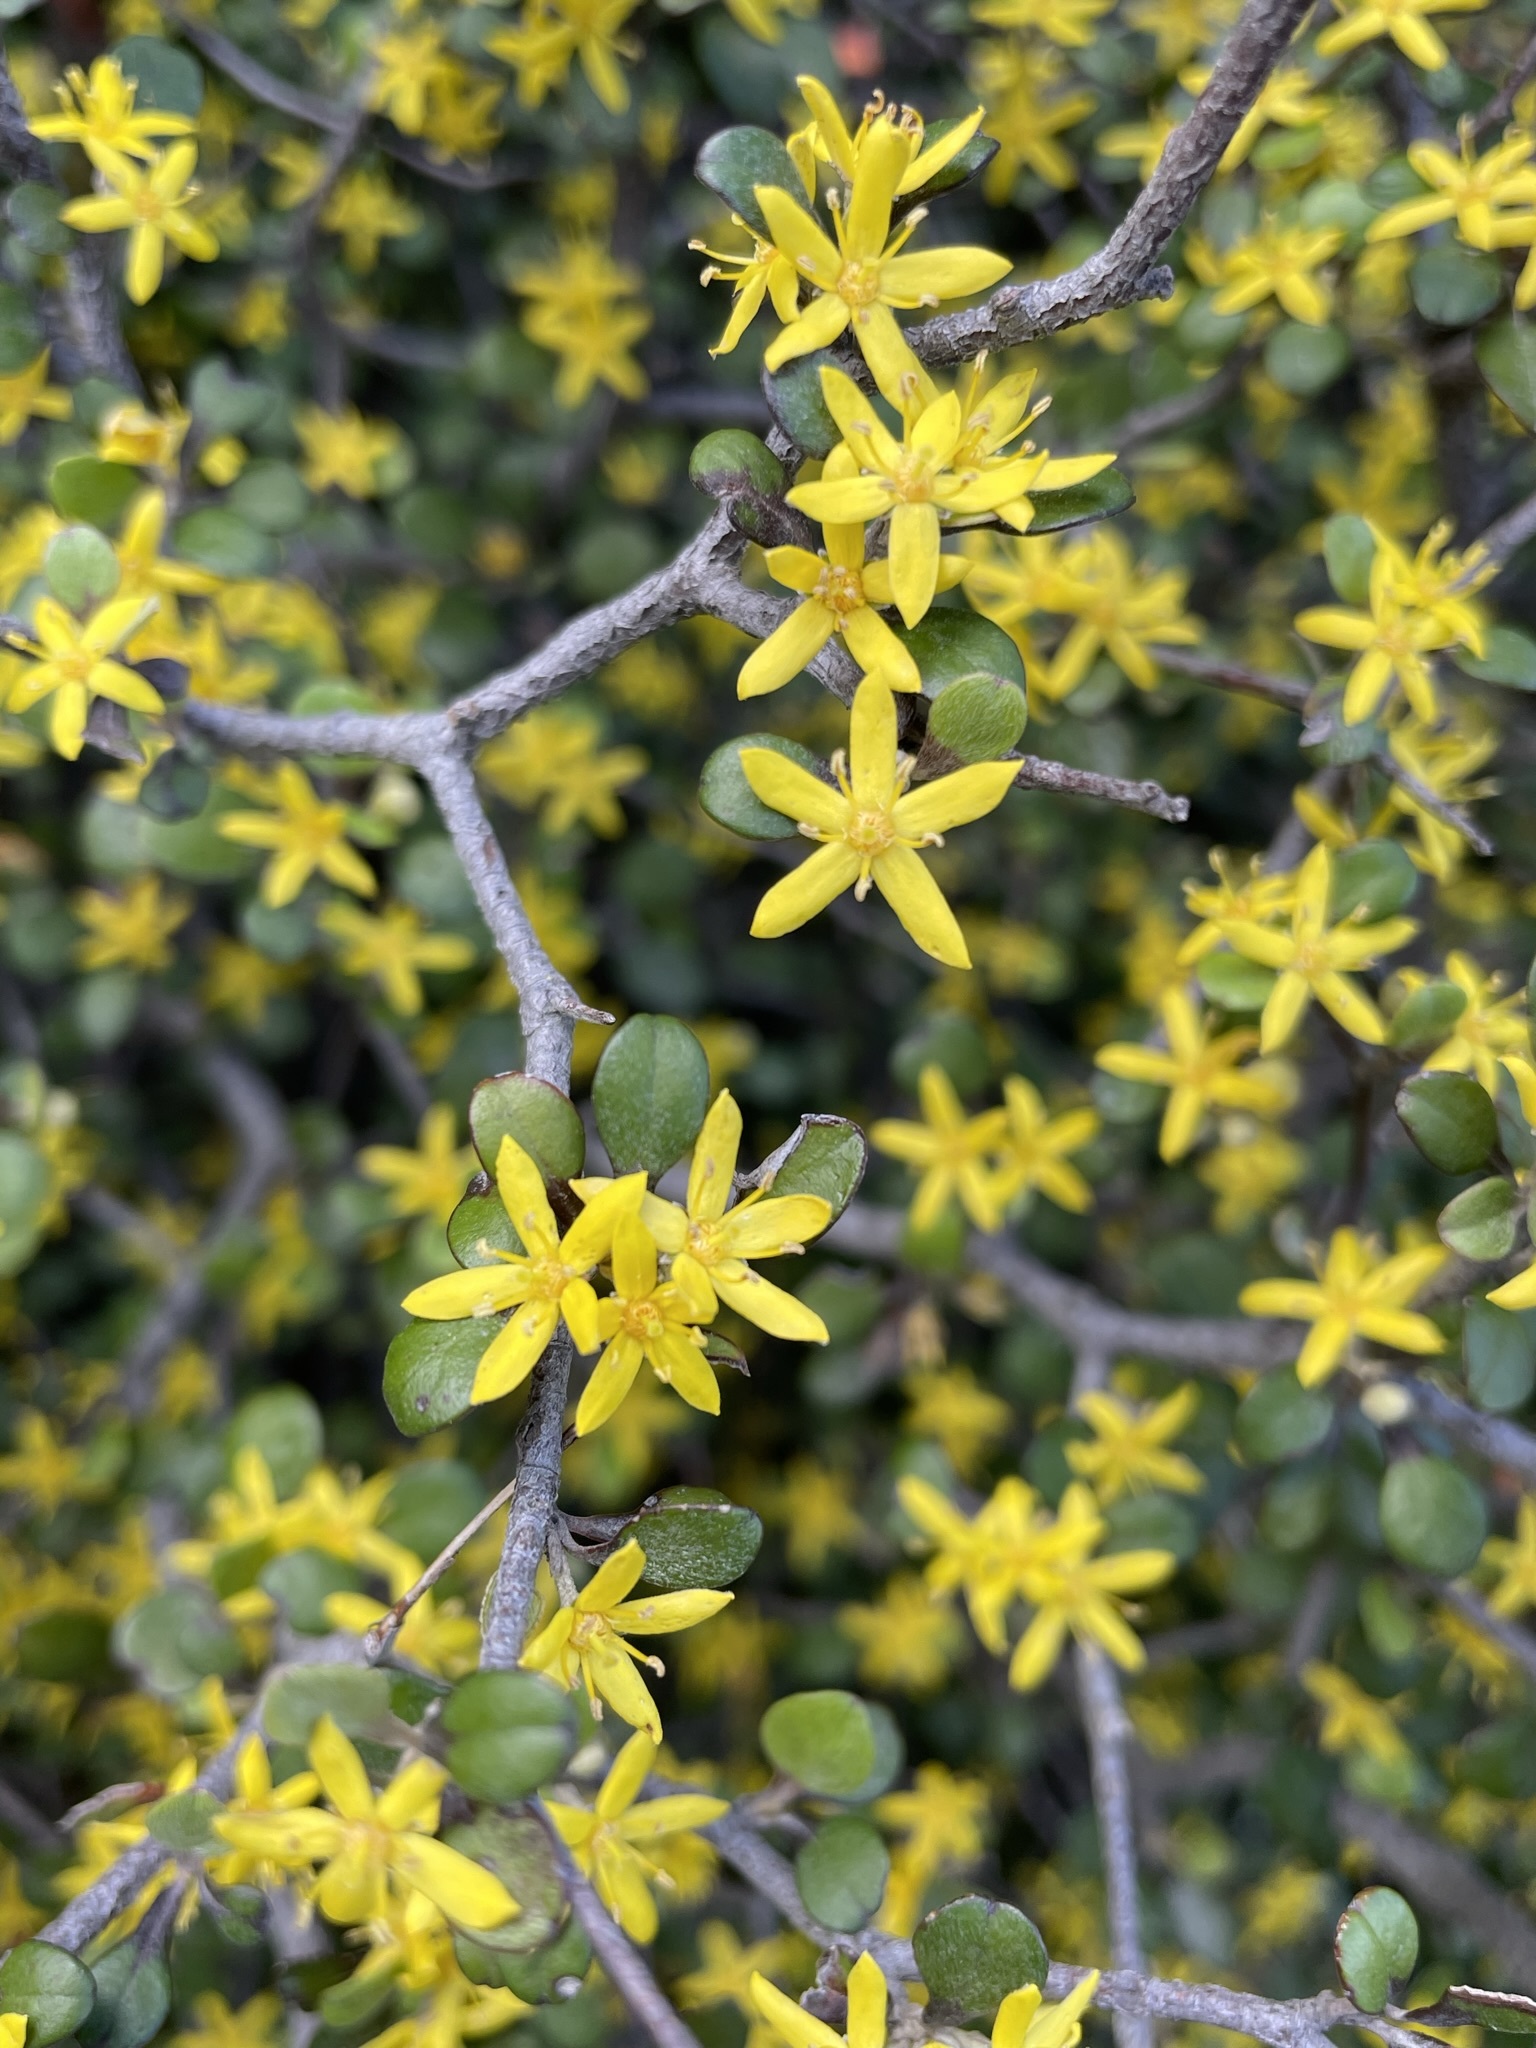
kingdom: Plantae
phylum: Tracheophyta
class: Magnoliopsida
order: Asterales
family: Argophyllaceae
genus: Corokia
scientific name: Corokia cotoneaster
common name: Wire nettingbush
